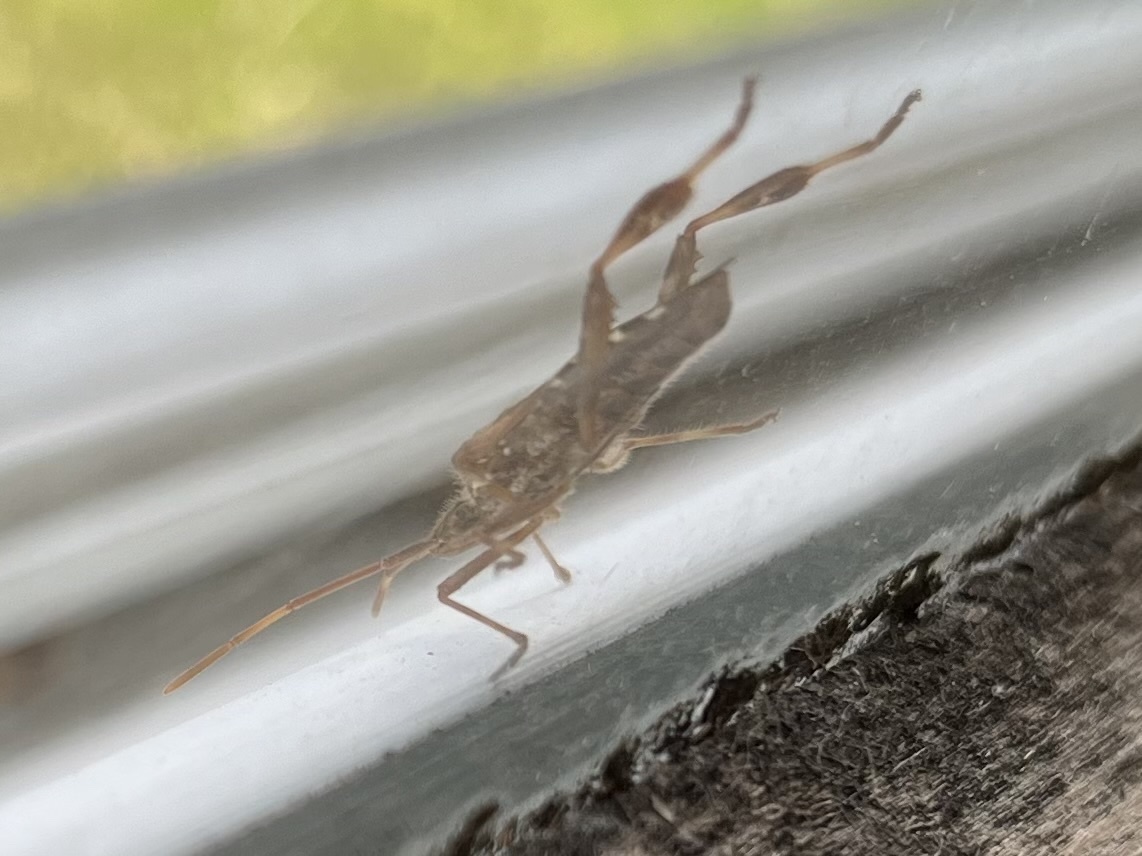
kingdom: Animalia
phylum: Arthropoda
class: Insecta
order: Hemiptera
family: Coreidae
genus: Leptoglossus
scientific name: Leptoglossus occidentalis
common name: Western conifer-seed bug
